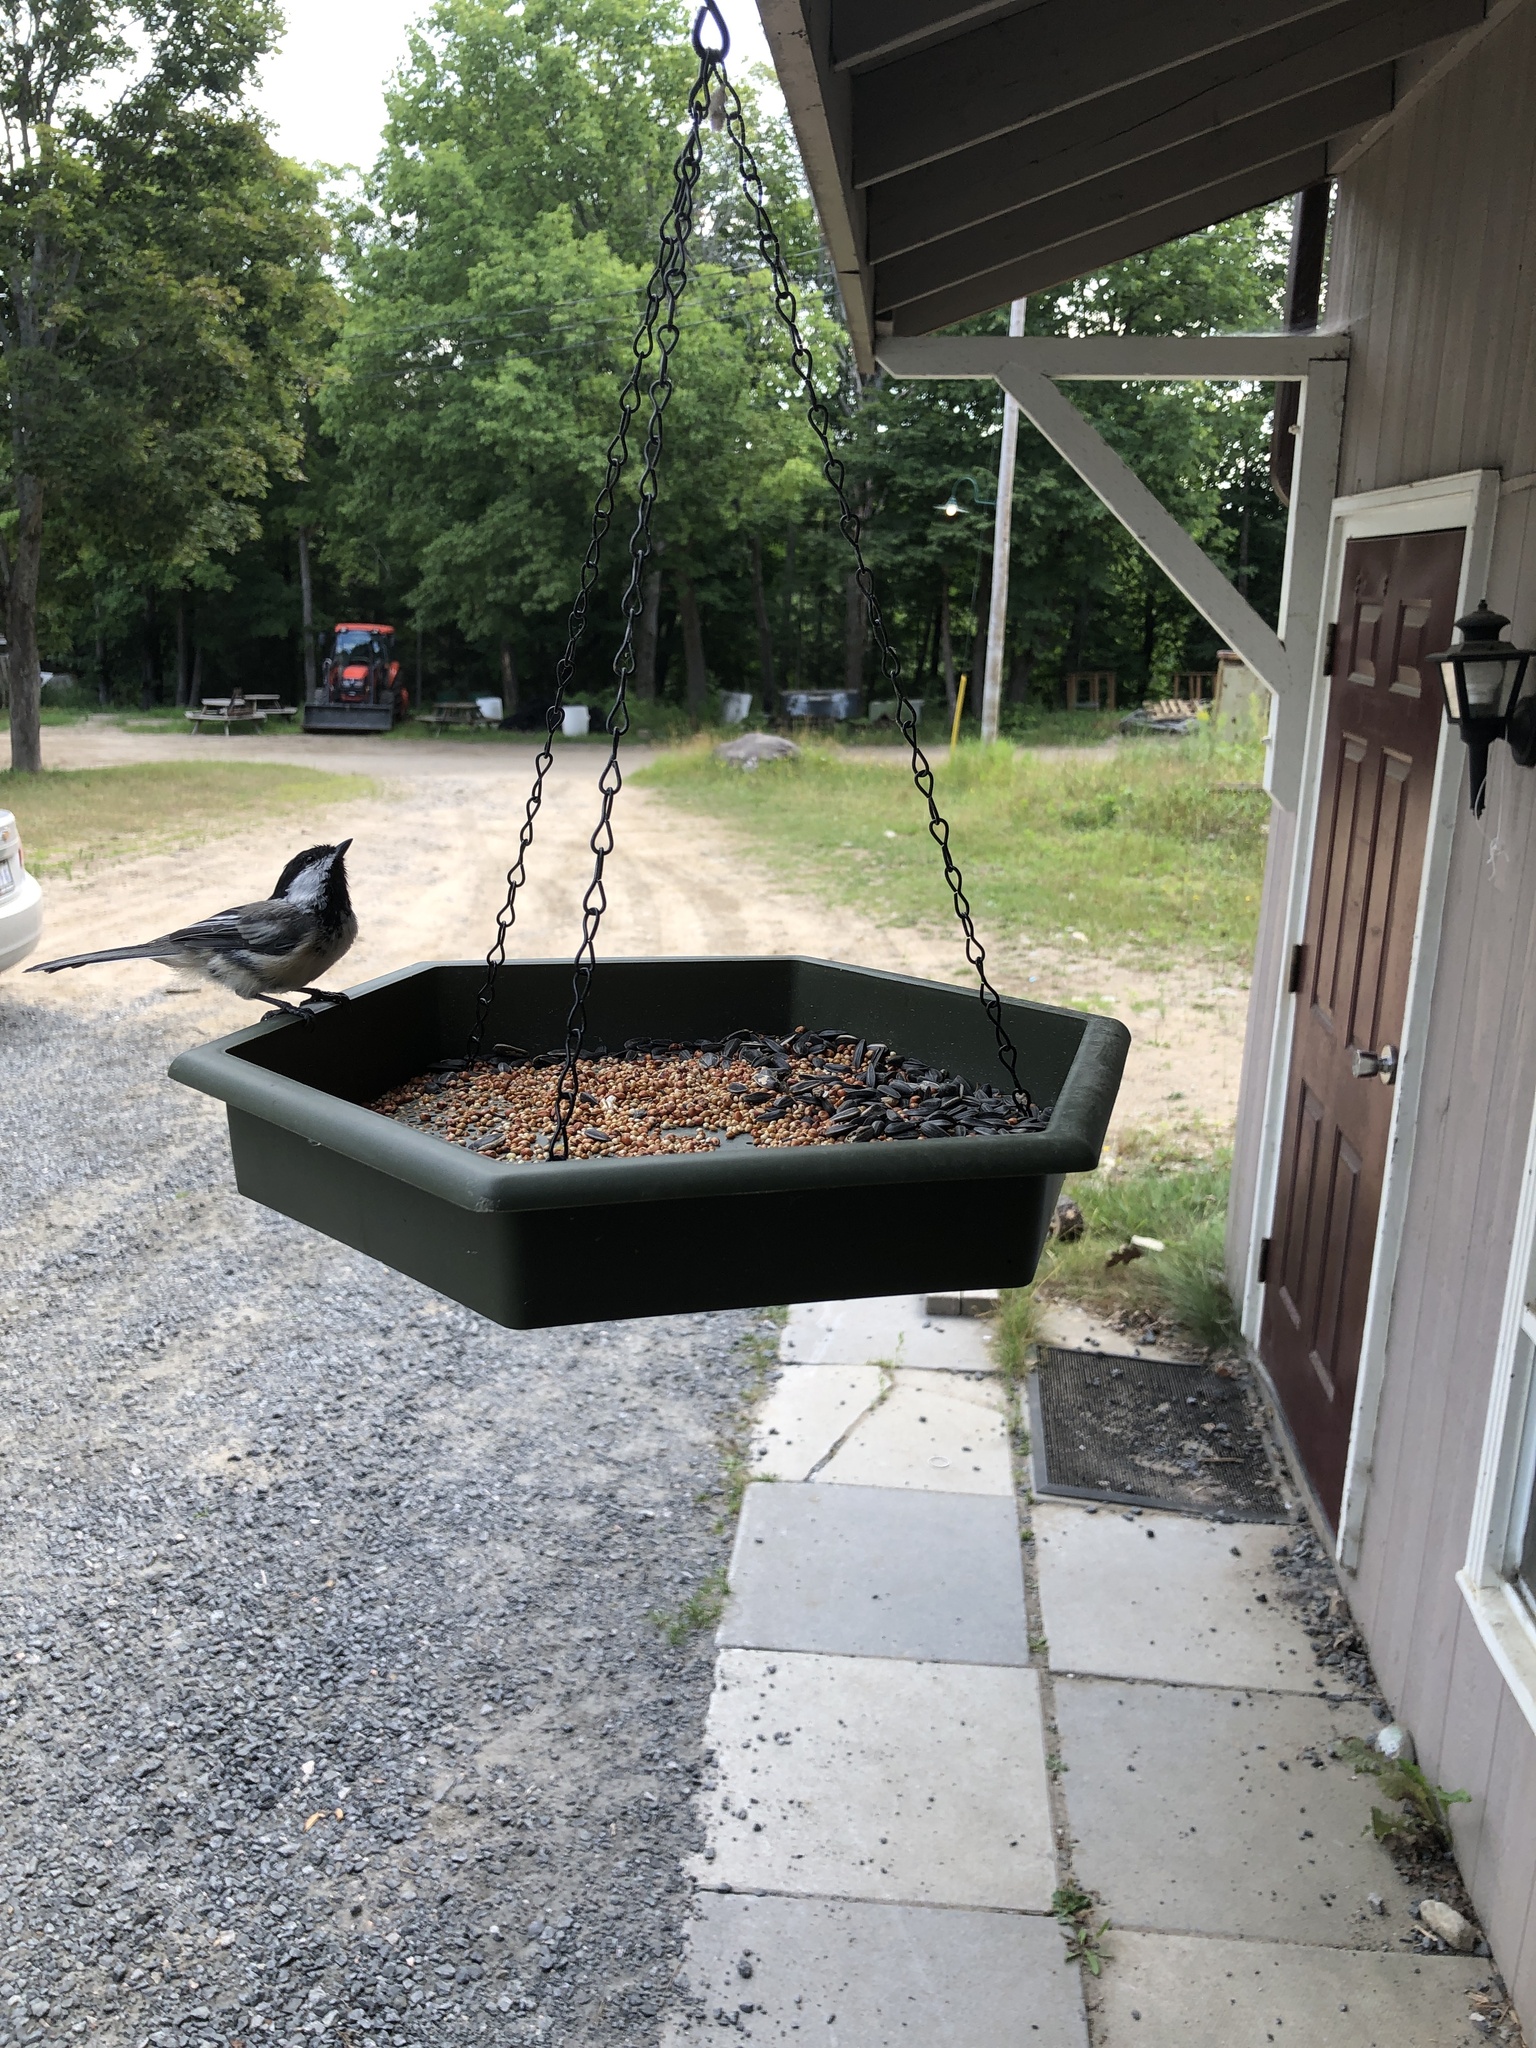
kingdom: Animalia
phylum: Chordata
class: Aves
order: Passeriformes
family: Paridae
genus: Poecile
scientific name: Poecile atricapillus
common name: Black-capped chickadee
